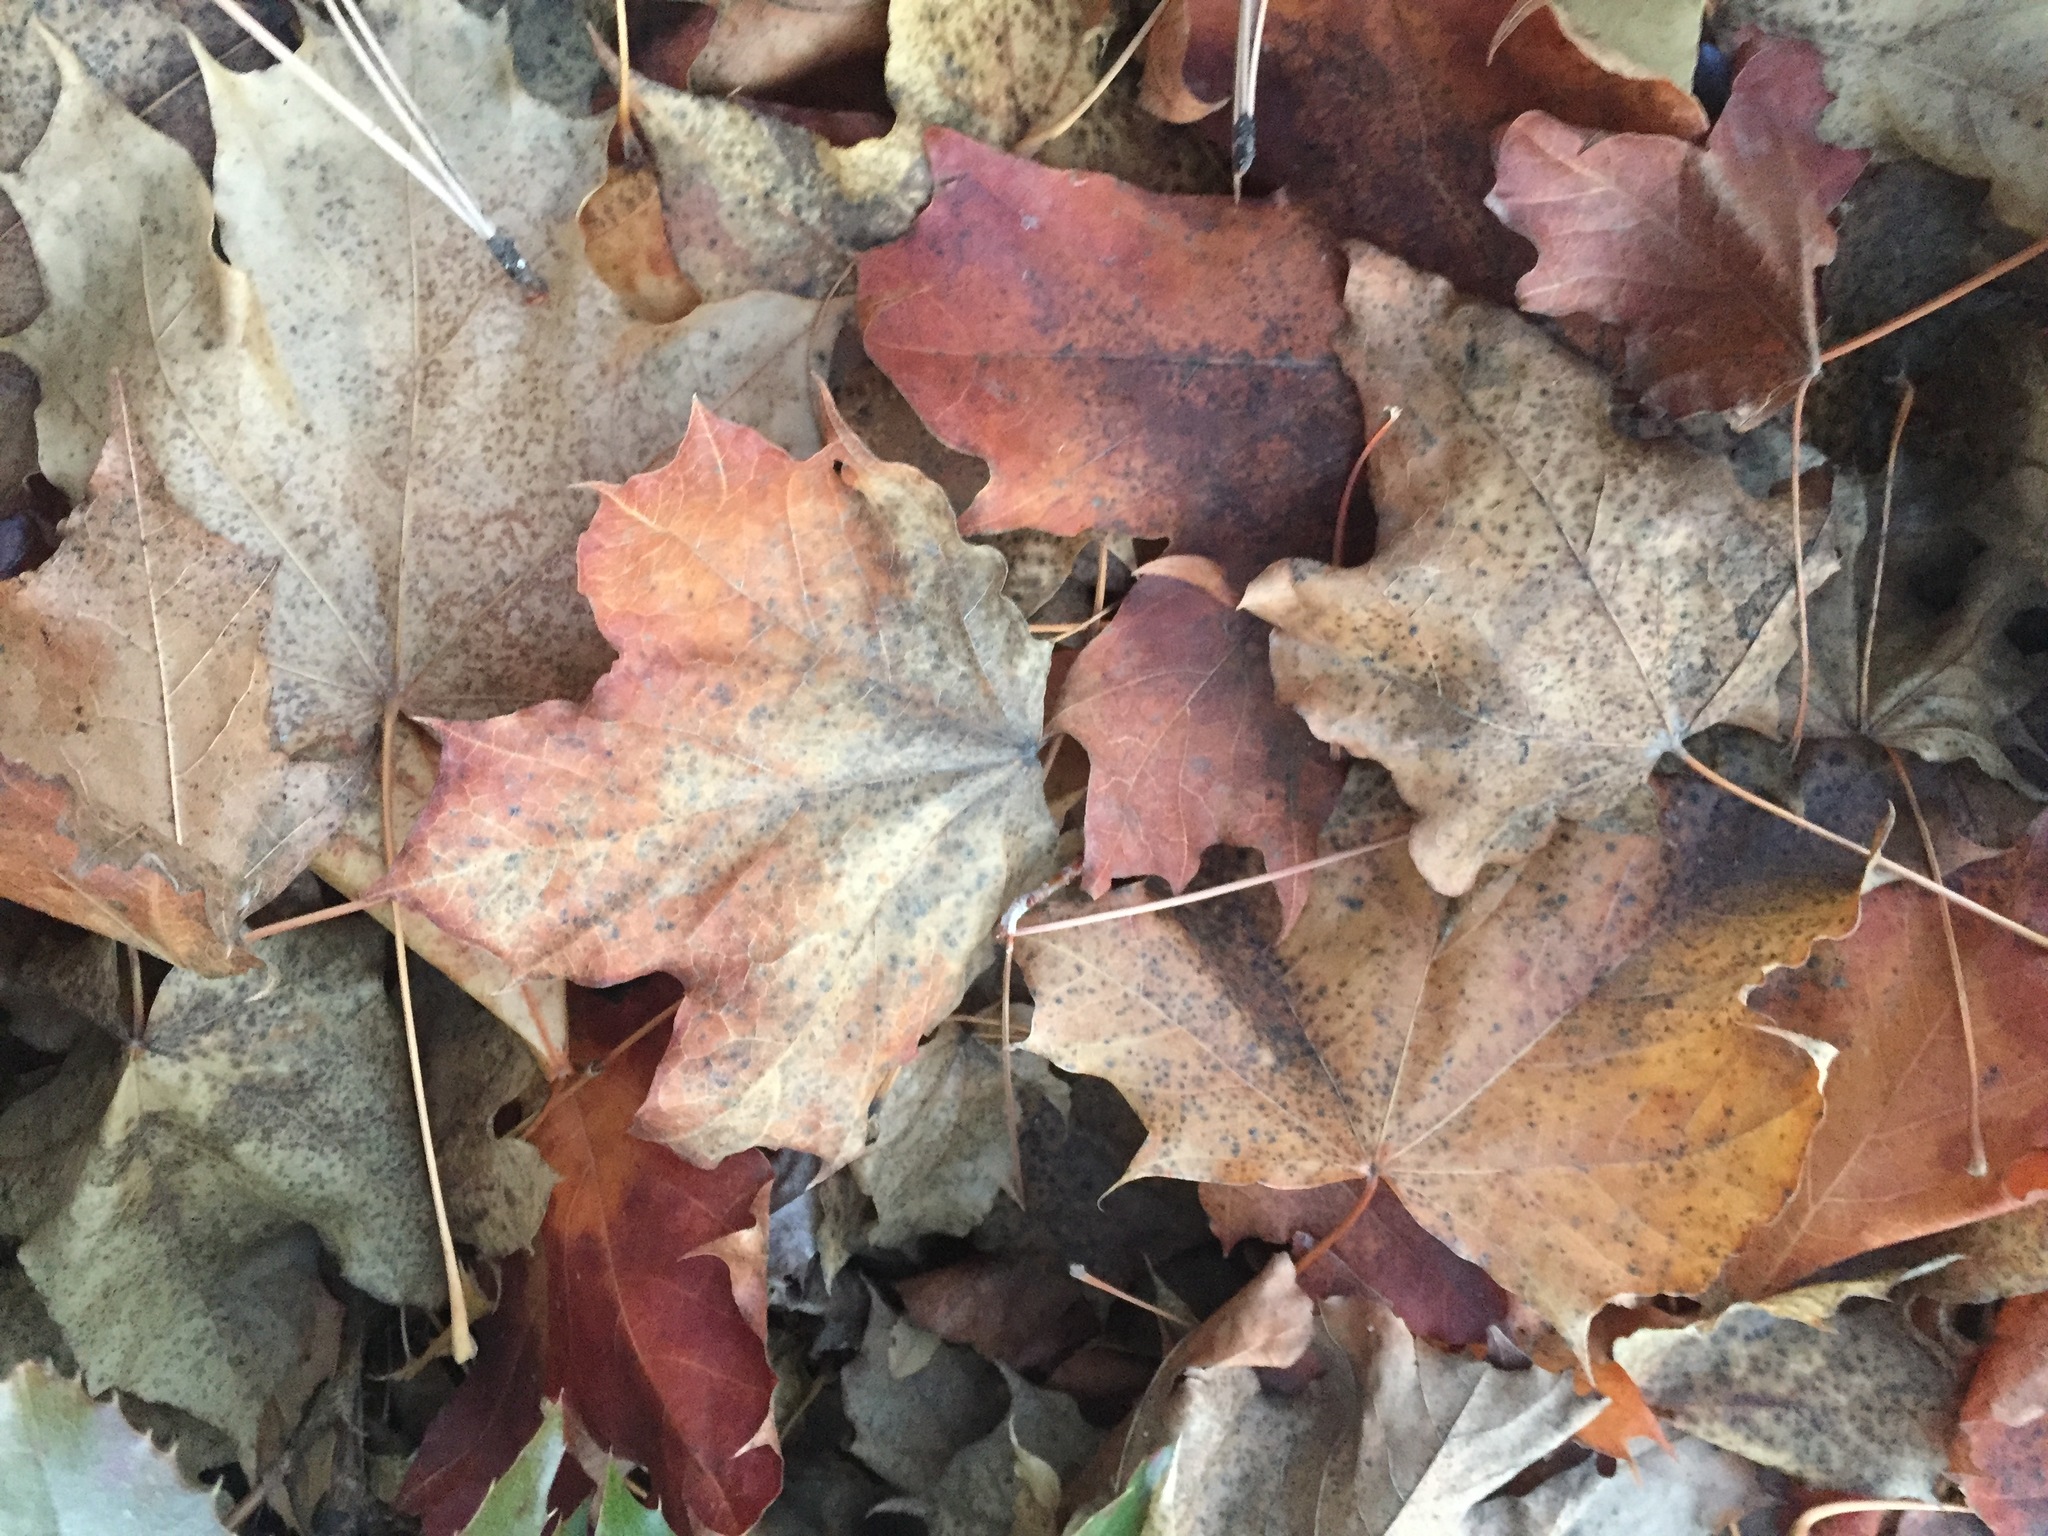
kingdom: Plantae
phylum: Tracheophyta
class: Magnoliopsida
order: Sapindales
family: Sapindaceae
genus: Acer
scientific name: Acer platanoides
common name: Norway maple
